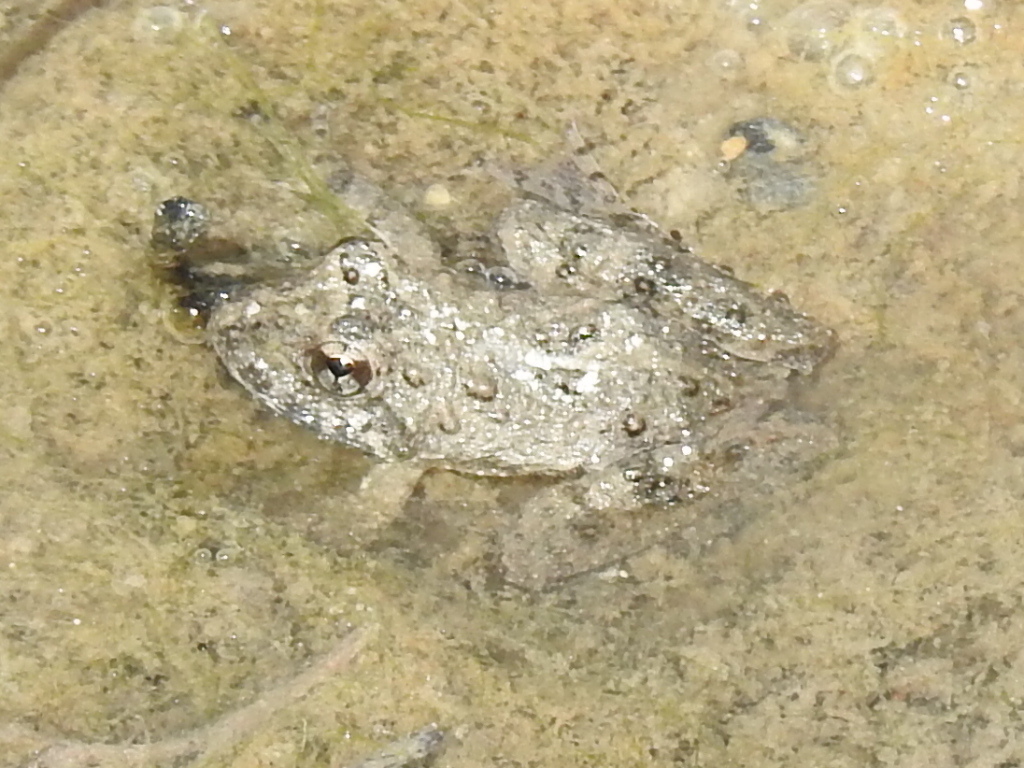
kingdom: Animalia
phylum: Chordata
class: Amphibia
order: Anura
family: Hylidae
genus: Acris
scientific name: Acris blanchardi
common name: Blanchard's cricket frog
